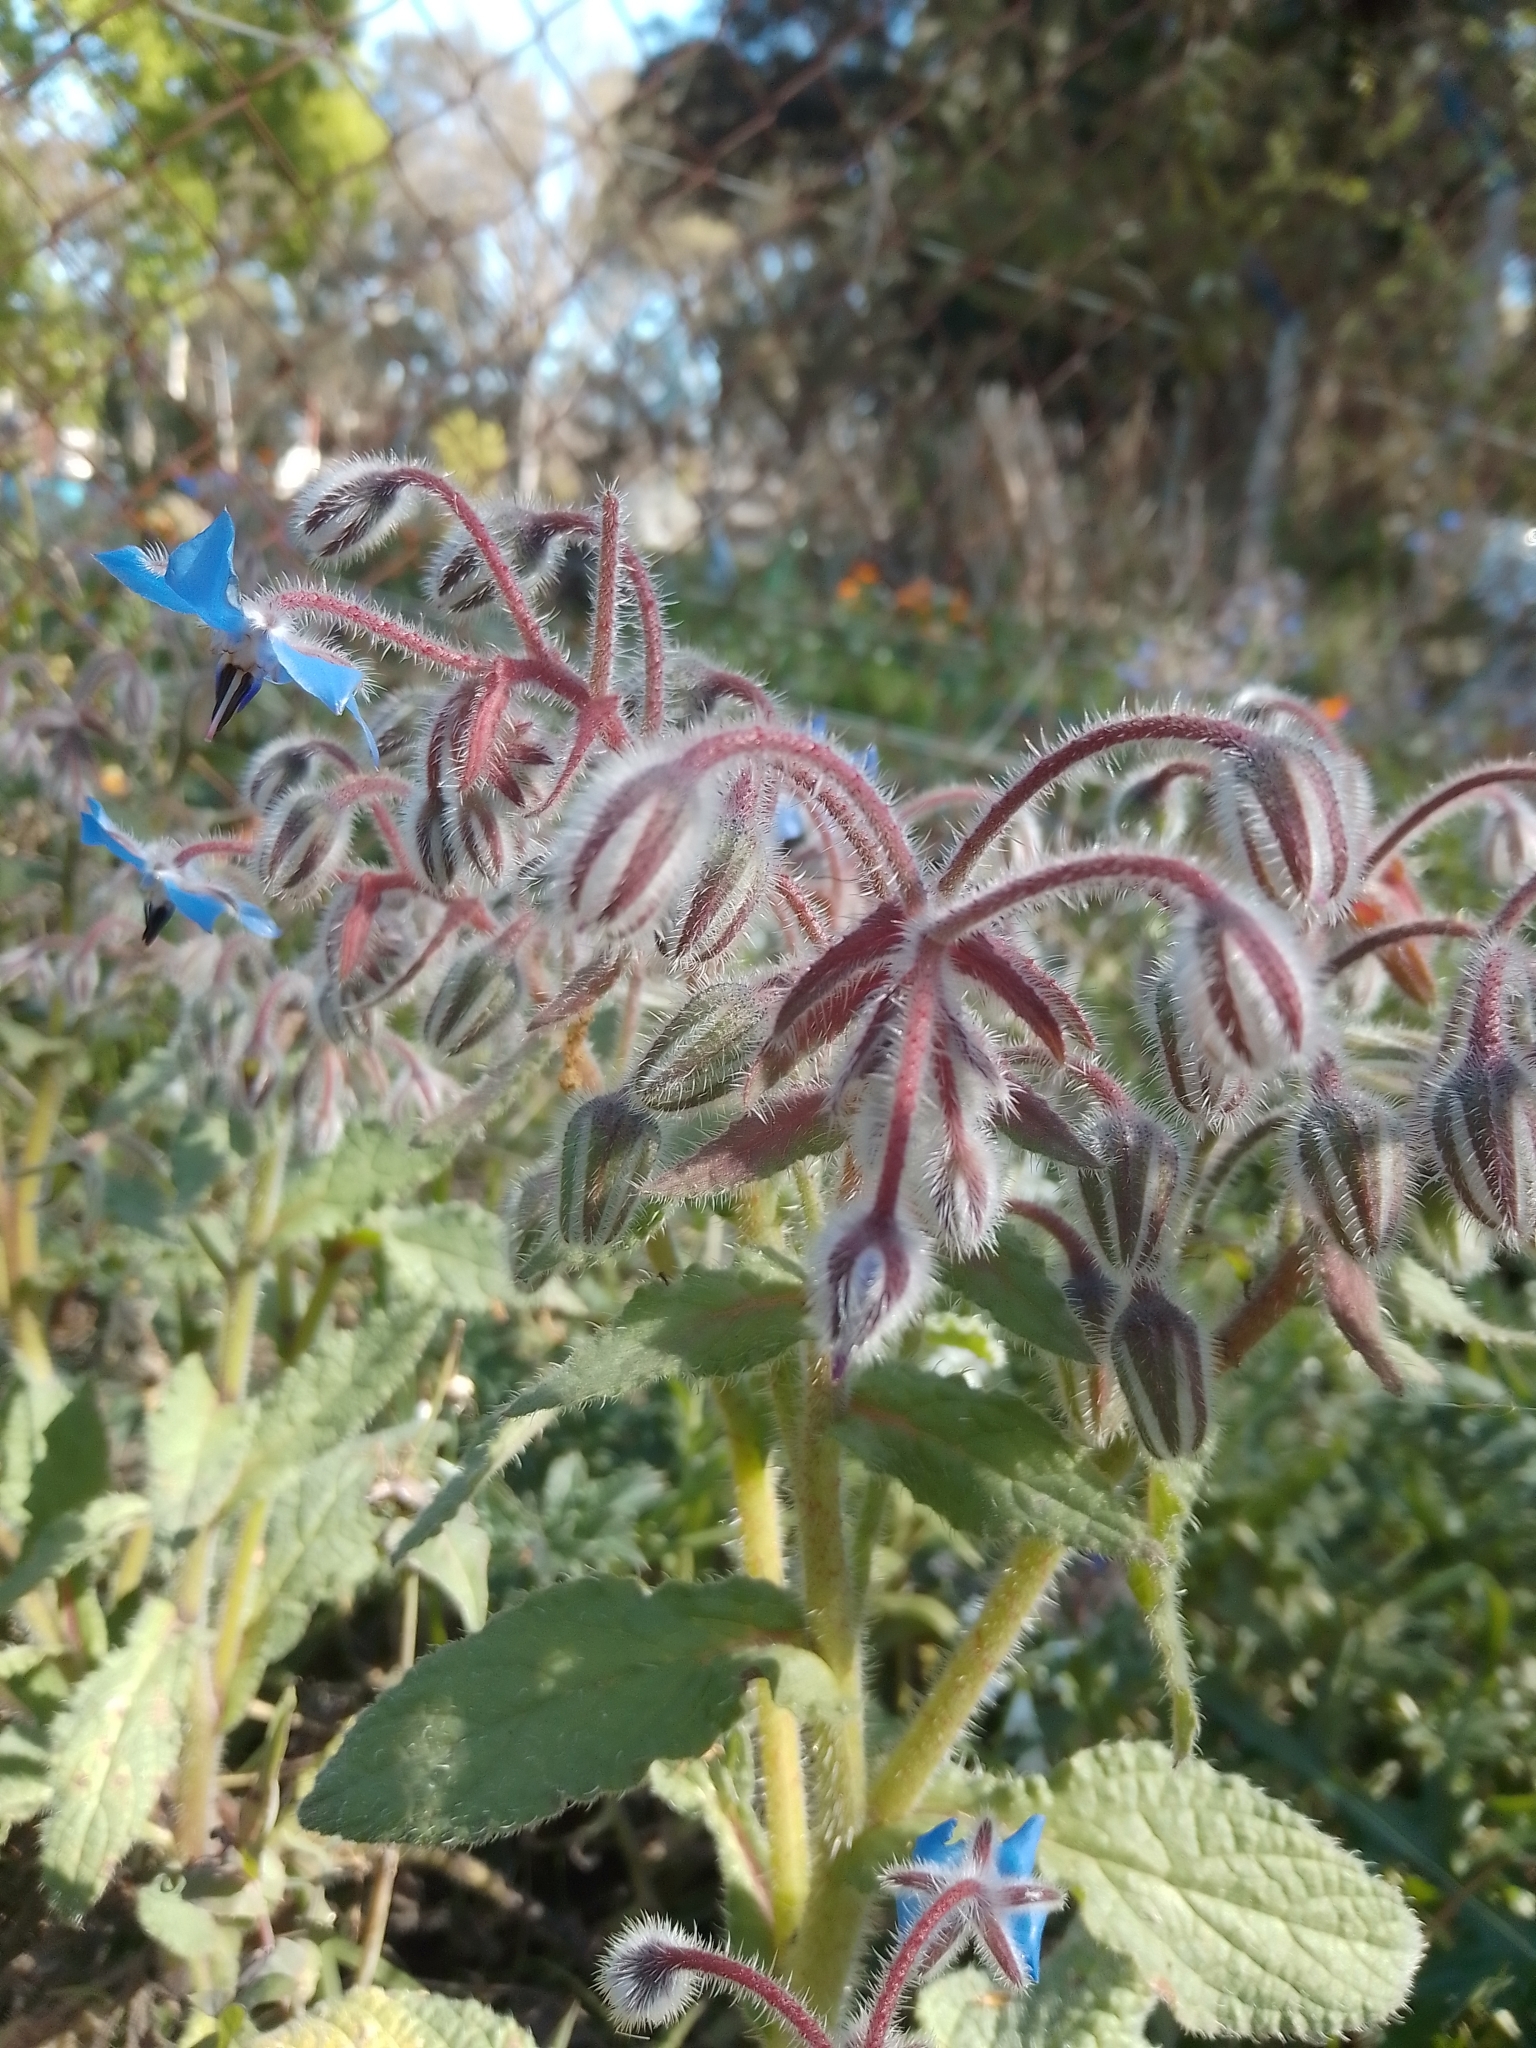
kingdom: Plantae
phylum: Tracheophyta
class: Magnoliopsida
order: Boraginales
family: Boraginaceae
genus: Borago
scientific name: Borago officinalis
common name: Borage
